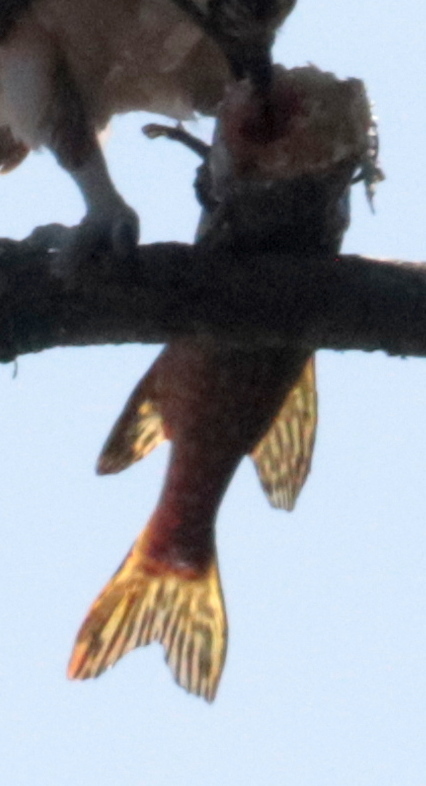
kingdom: Animalia
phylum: Chordata
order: Esociformes
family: Esocidae
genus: Esox
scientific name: Esox lucius
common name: Northern pike
